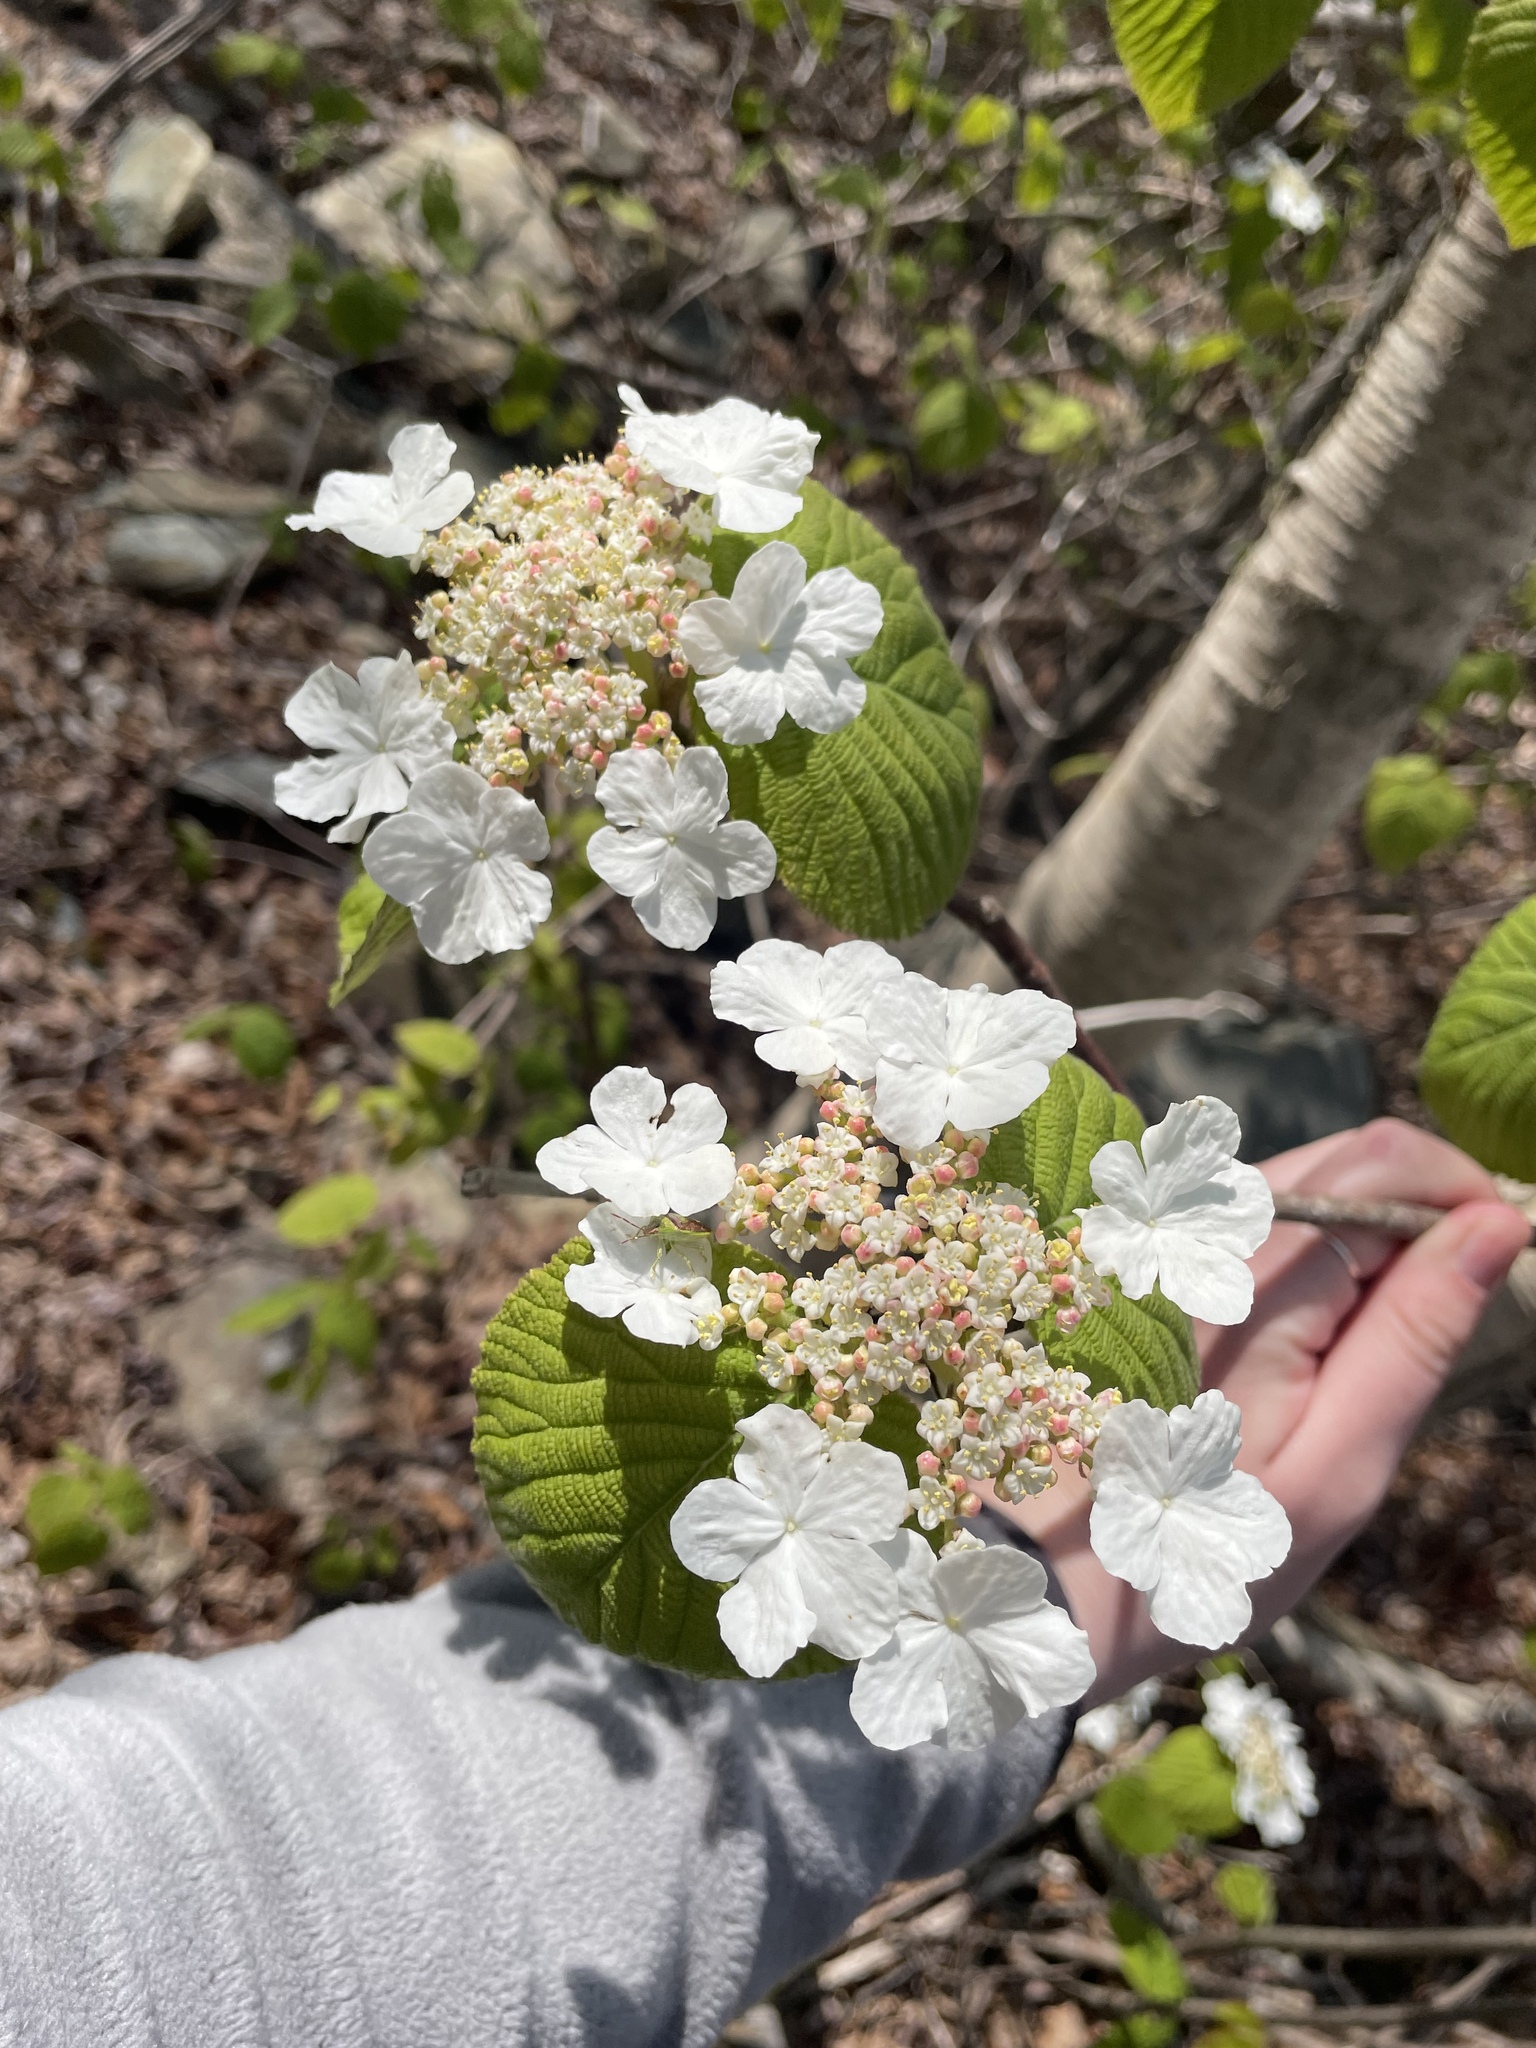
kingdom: Plantae
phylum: Tracheophyta
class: Magnoliopsida
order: Dipsacales
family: Viburnaceae
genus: Viburnum
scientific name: Viburnum lantanoides
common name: Hobblebush
